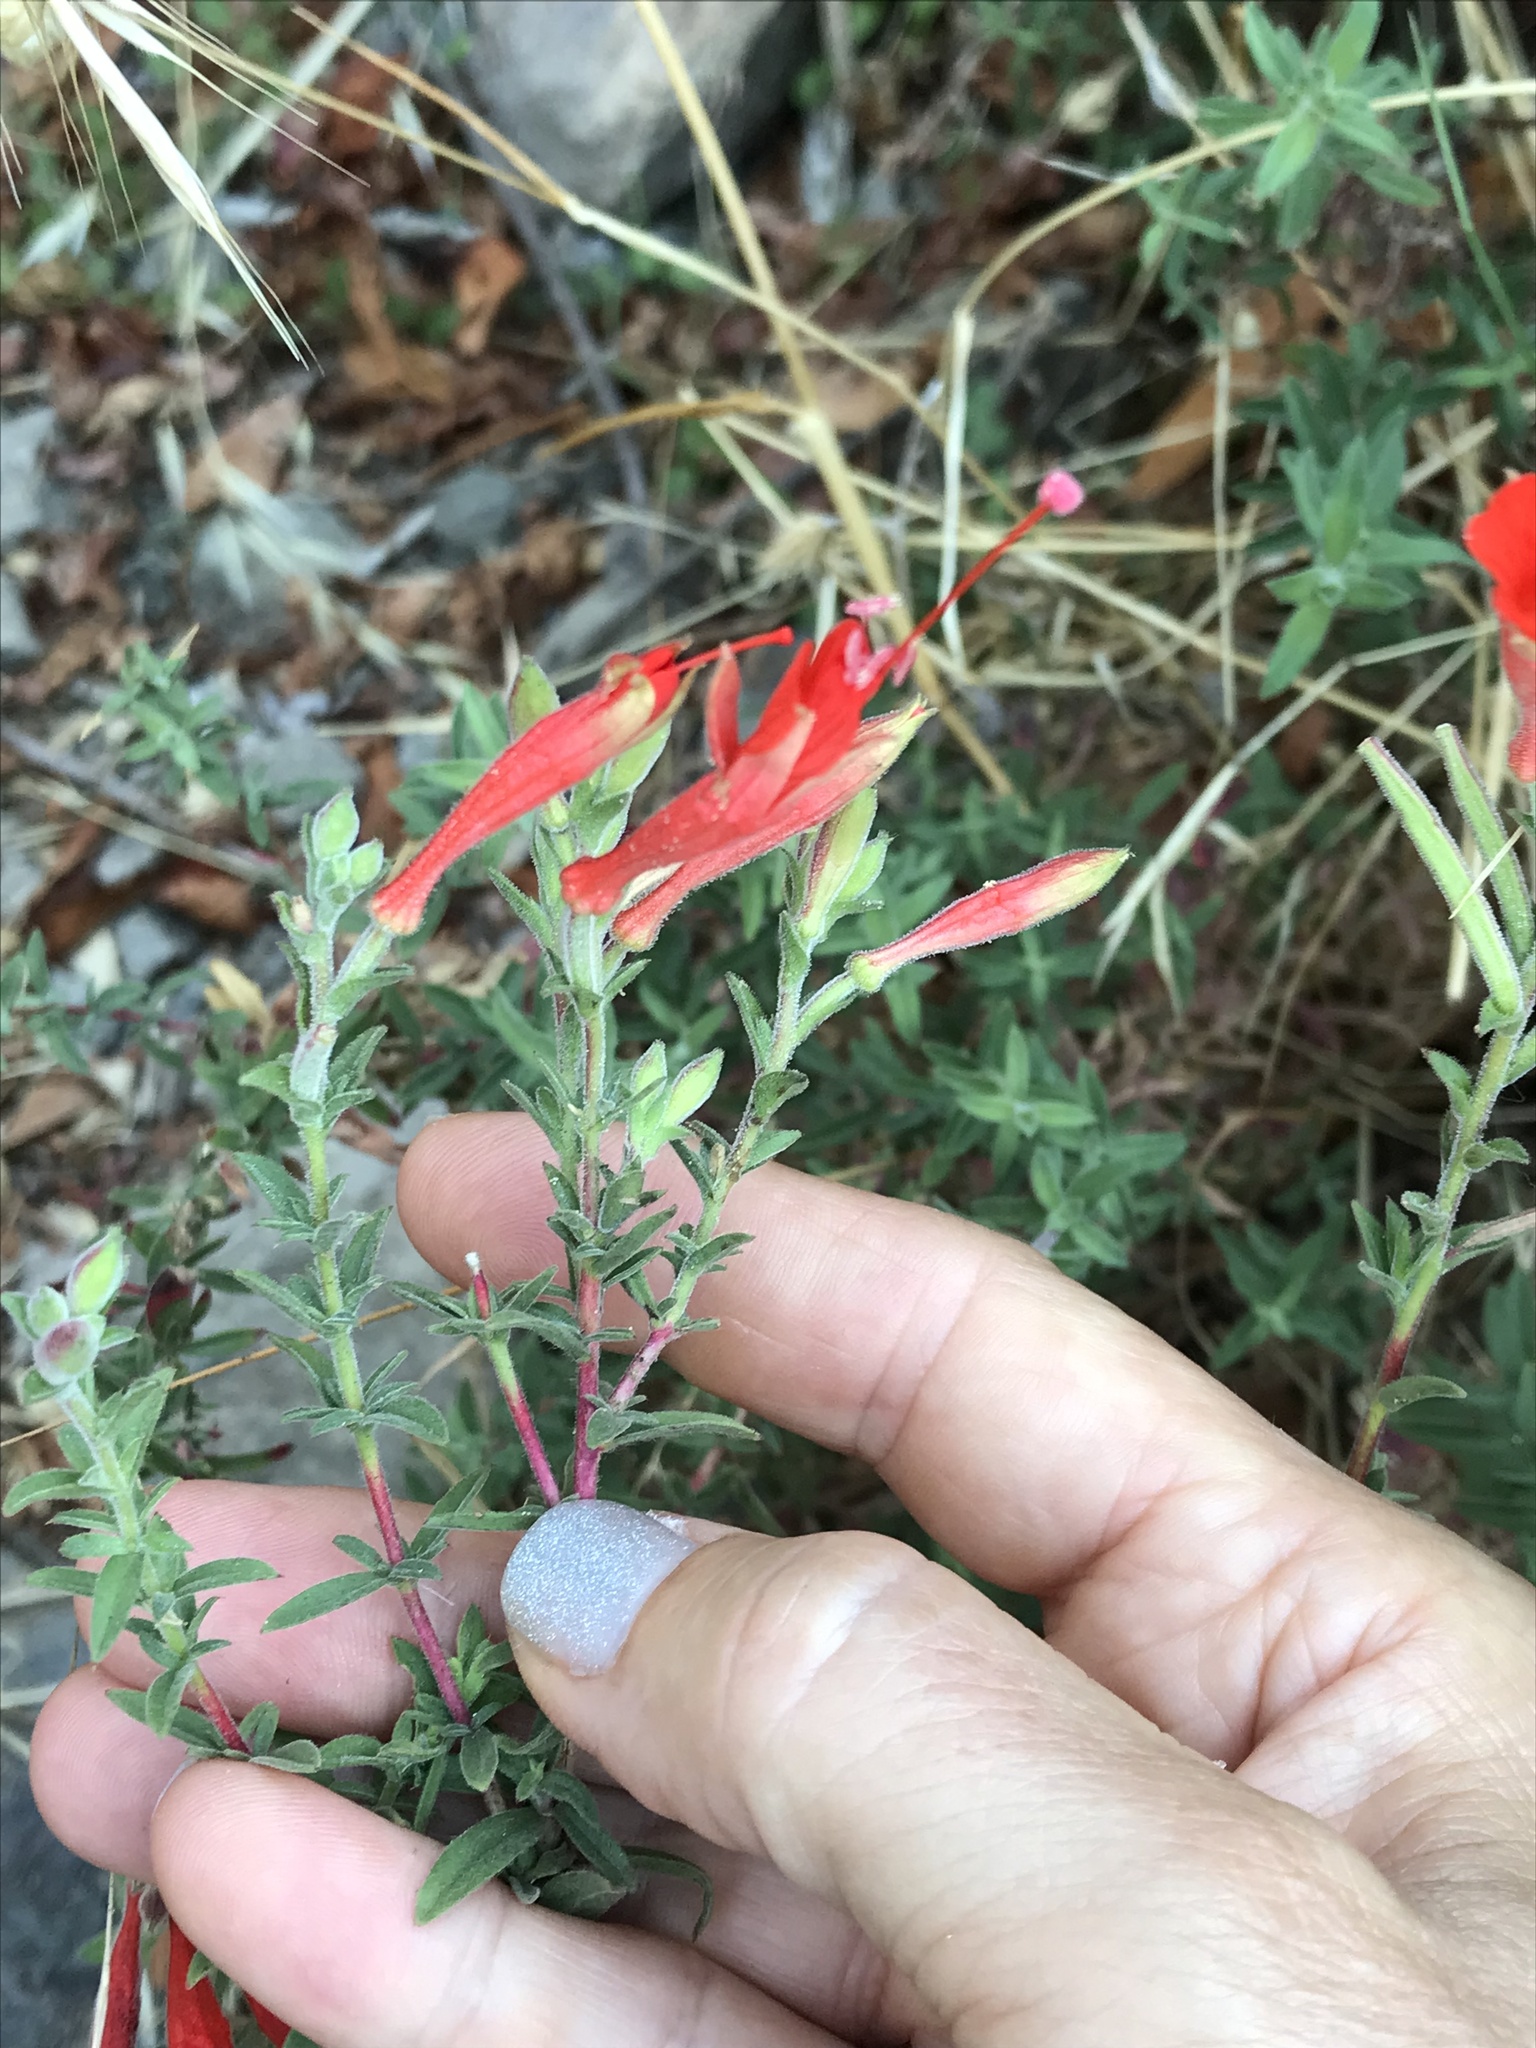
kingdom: Plantae
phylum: Tracheophyta
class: Magnoliopsida
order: Myrtales
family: Onagraceae
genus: Epilobium
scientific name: Epilobium canum
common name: California-fuchsia
